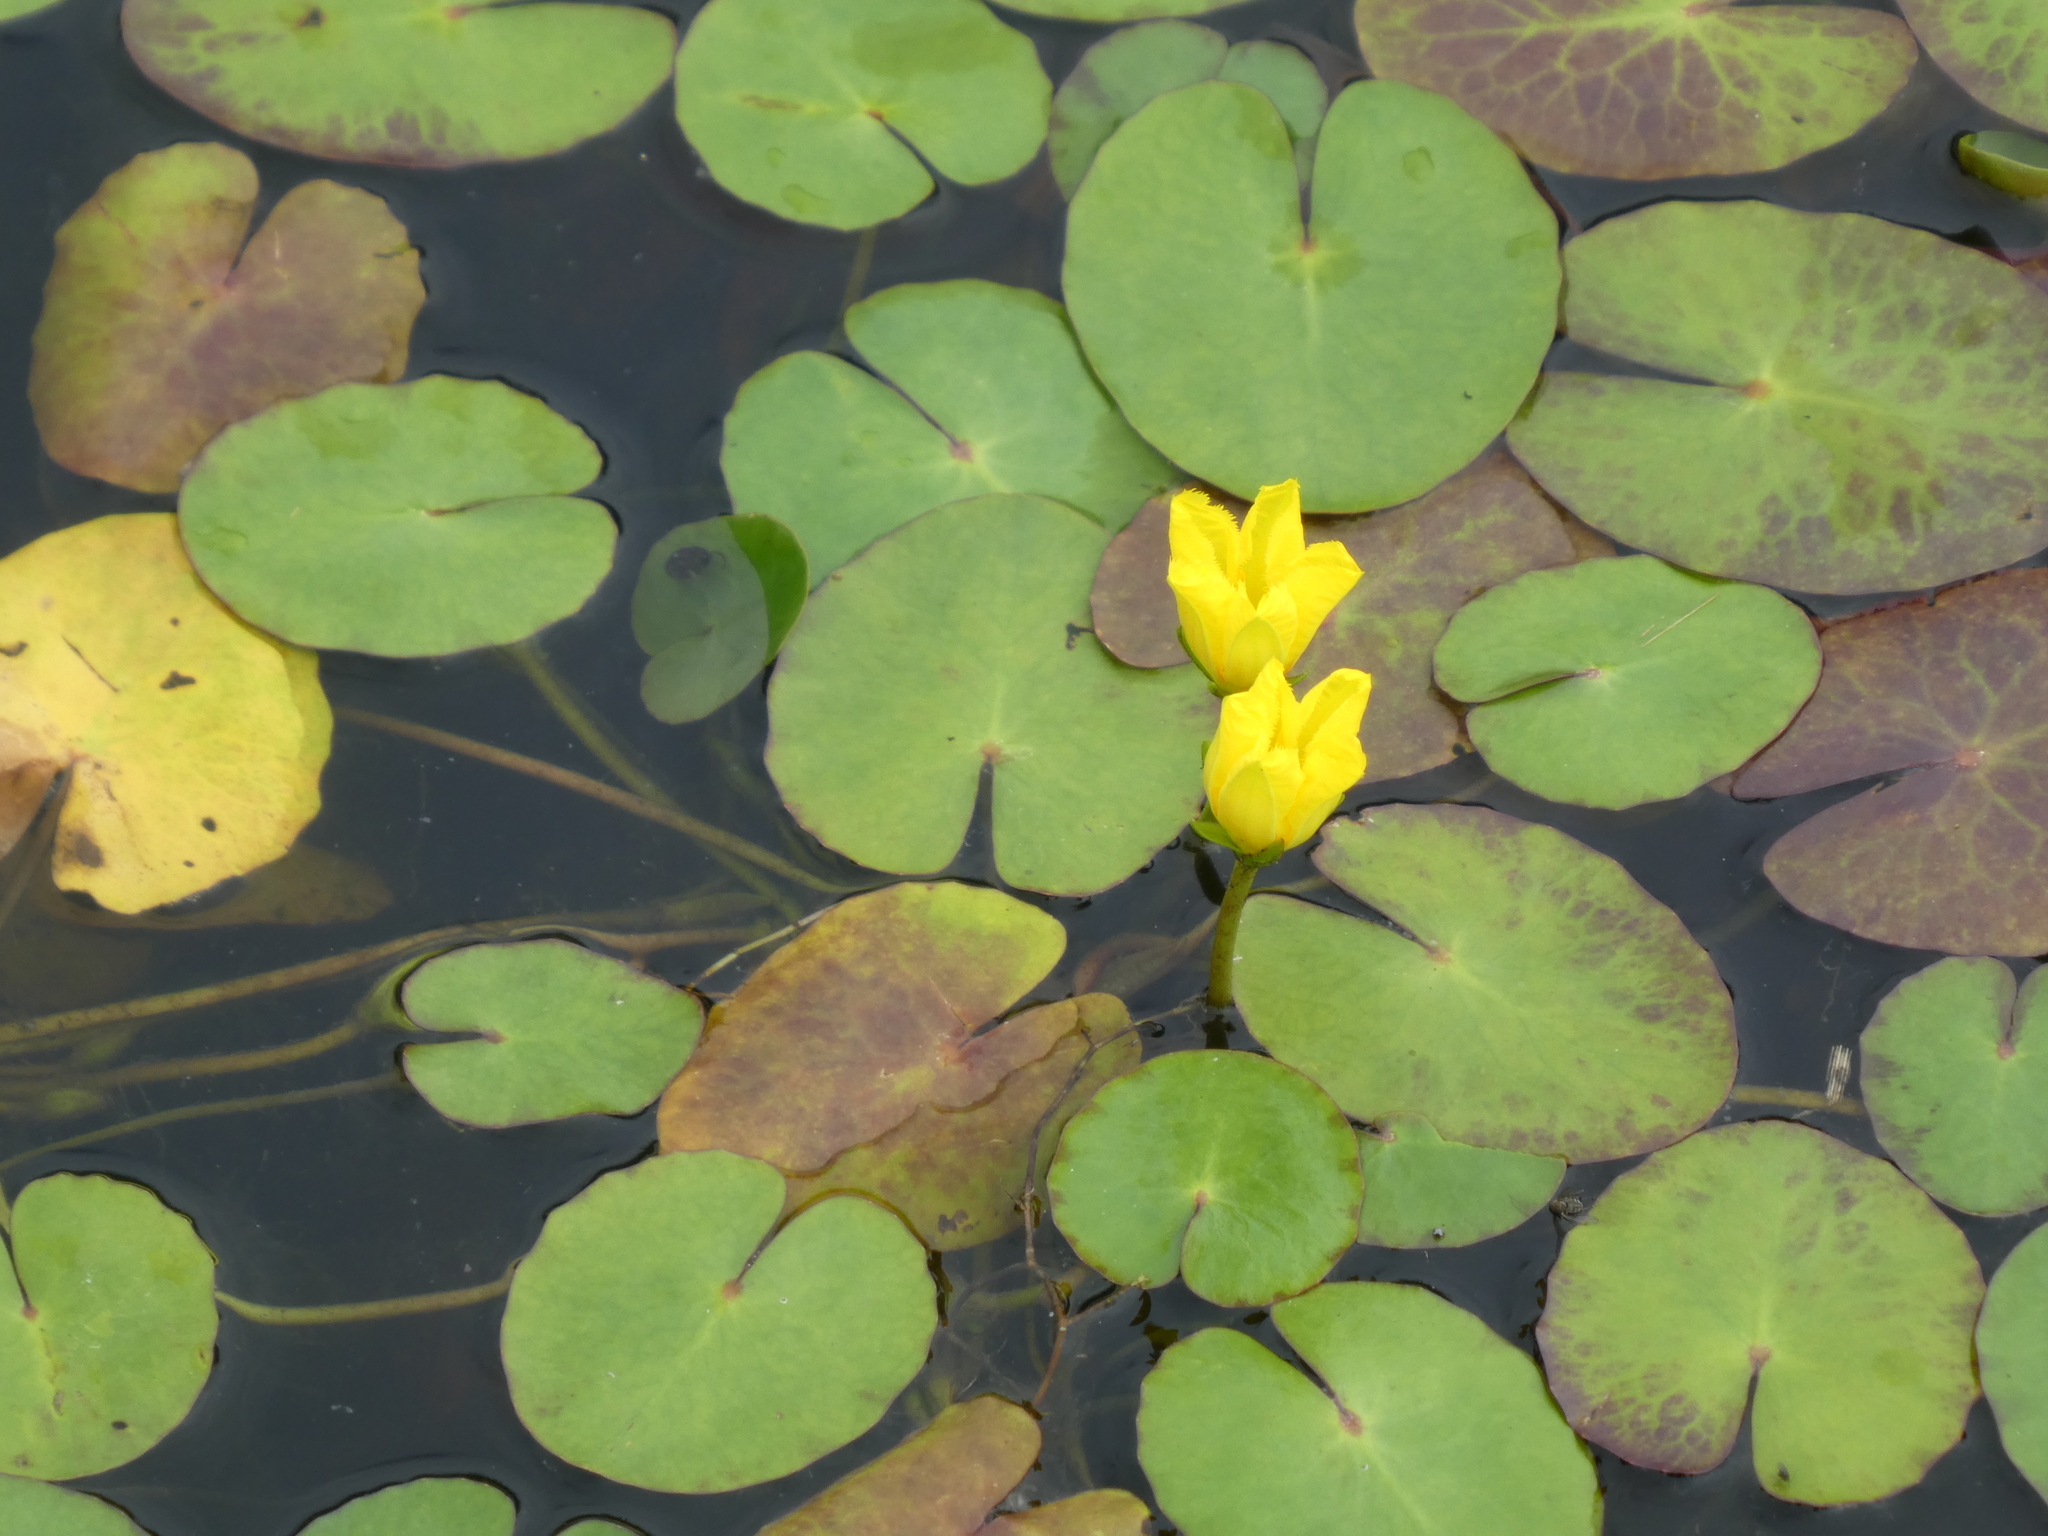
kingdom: Plantae
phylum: Tracheophyta
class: Magnoliopsida
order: Asterales
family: Menyanthaceae
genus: Nymphoides
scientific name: Nymphoides peltata
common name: Fringed water-lily
